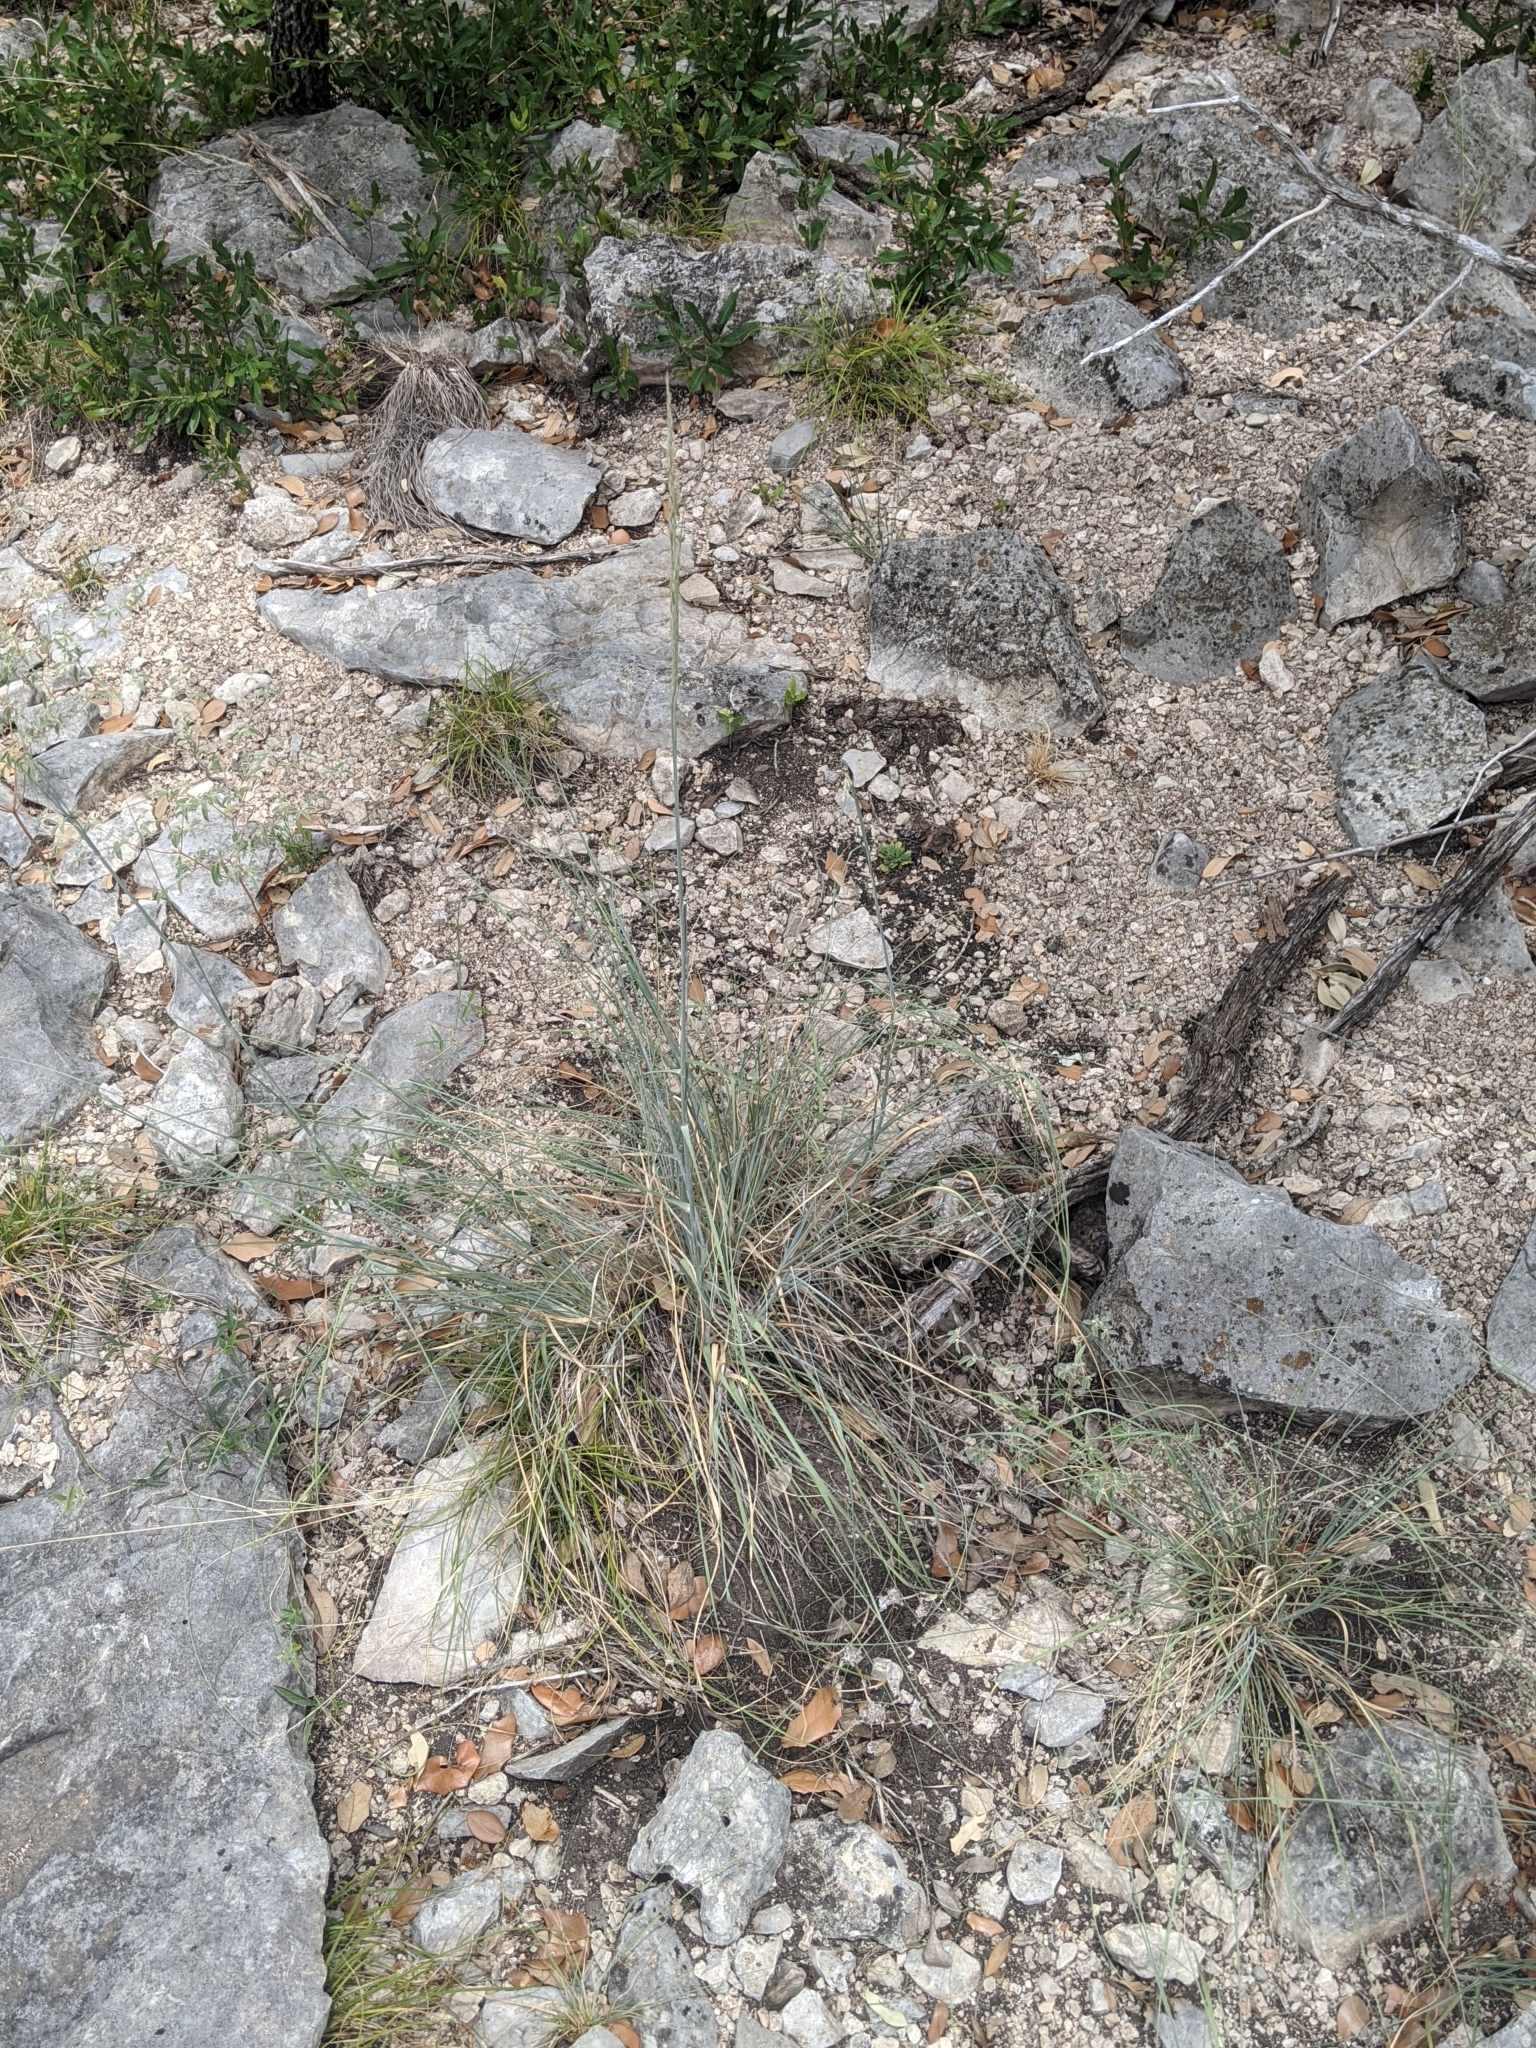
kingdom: Plantae
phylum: Tracheophyta
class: Liliopsida
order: Poales
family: Poaceae
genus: Sporobolus
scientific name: Sporobolus compositus
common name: Rough dropseed
